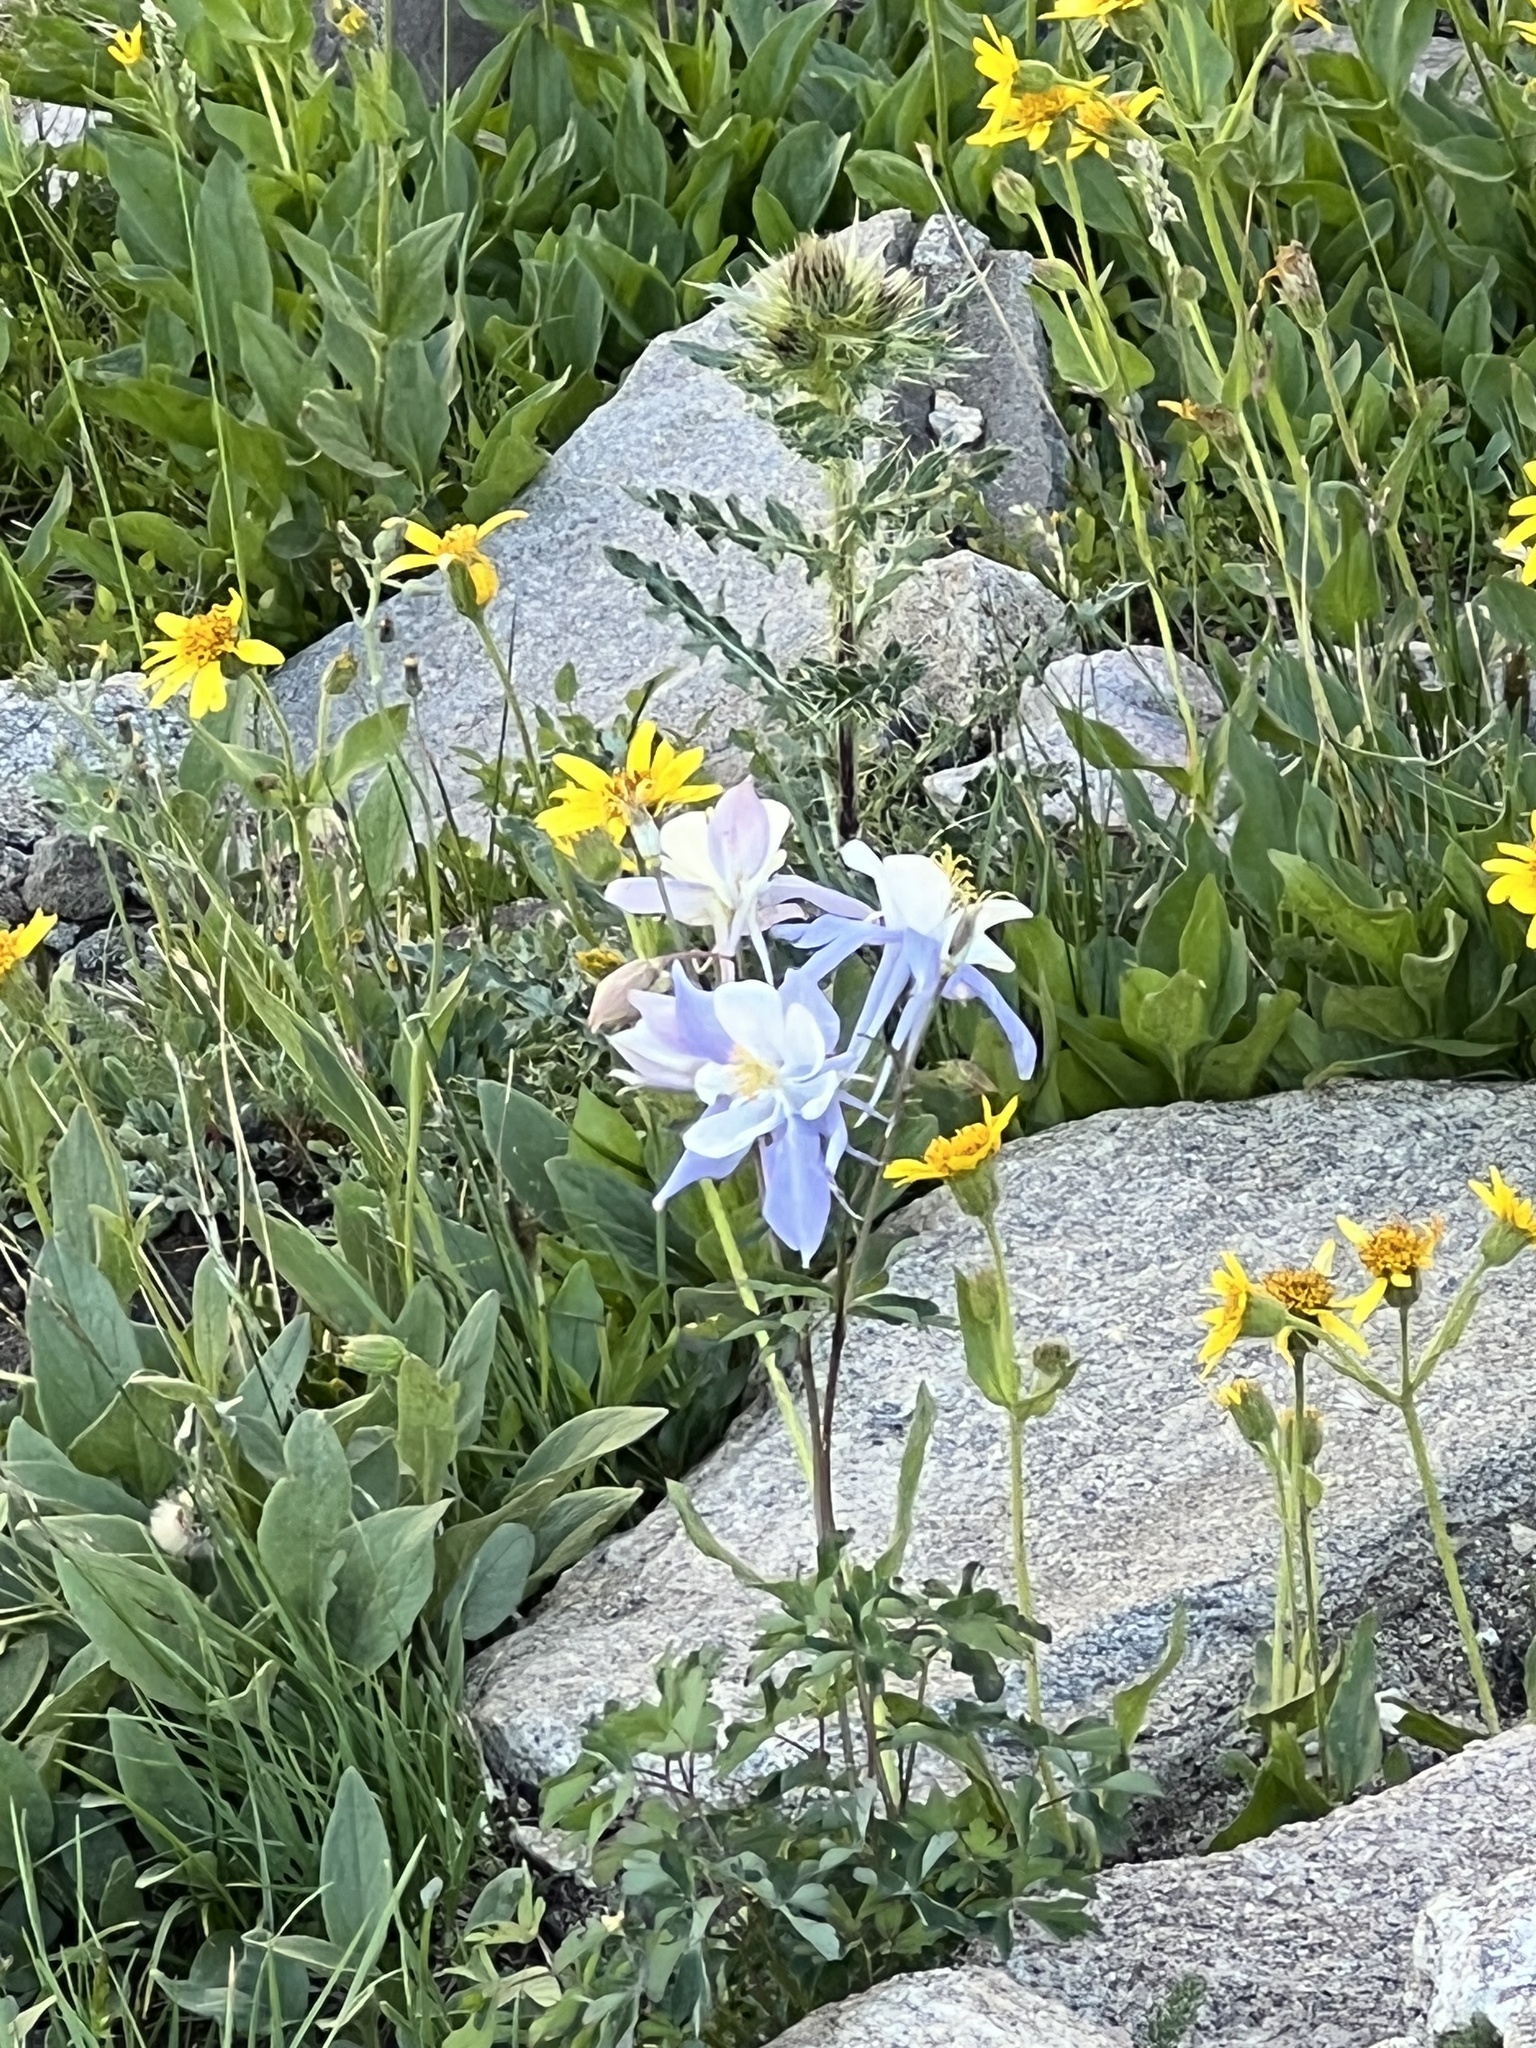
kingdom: Plantae
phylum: Tracheophyta
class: Magnoliopsida
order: Ranunculales
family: Ranunculaceae
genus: Aquilegia
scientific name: Aquilegia coerulea
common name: Rocky mountain columbine
